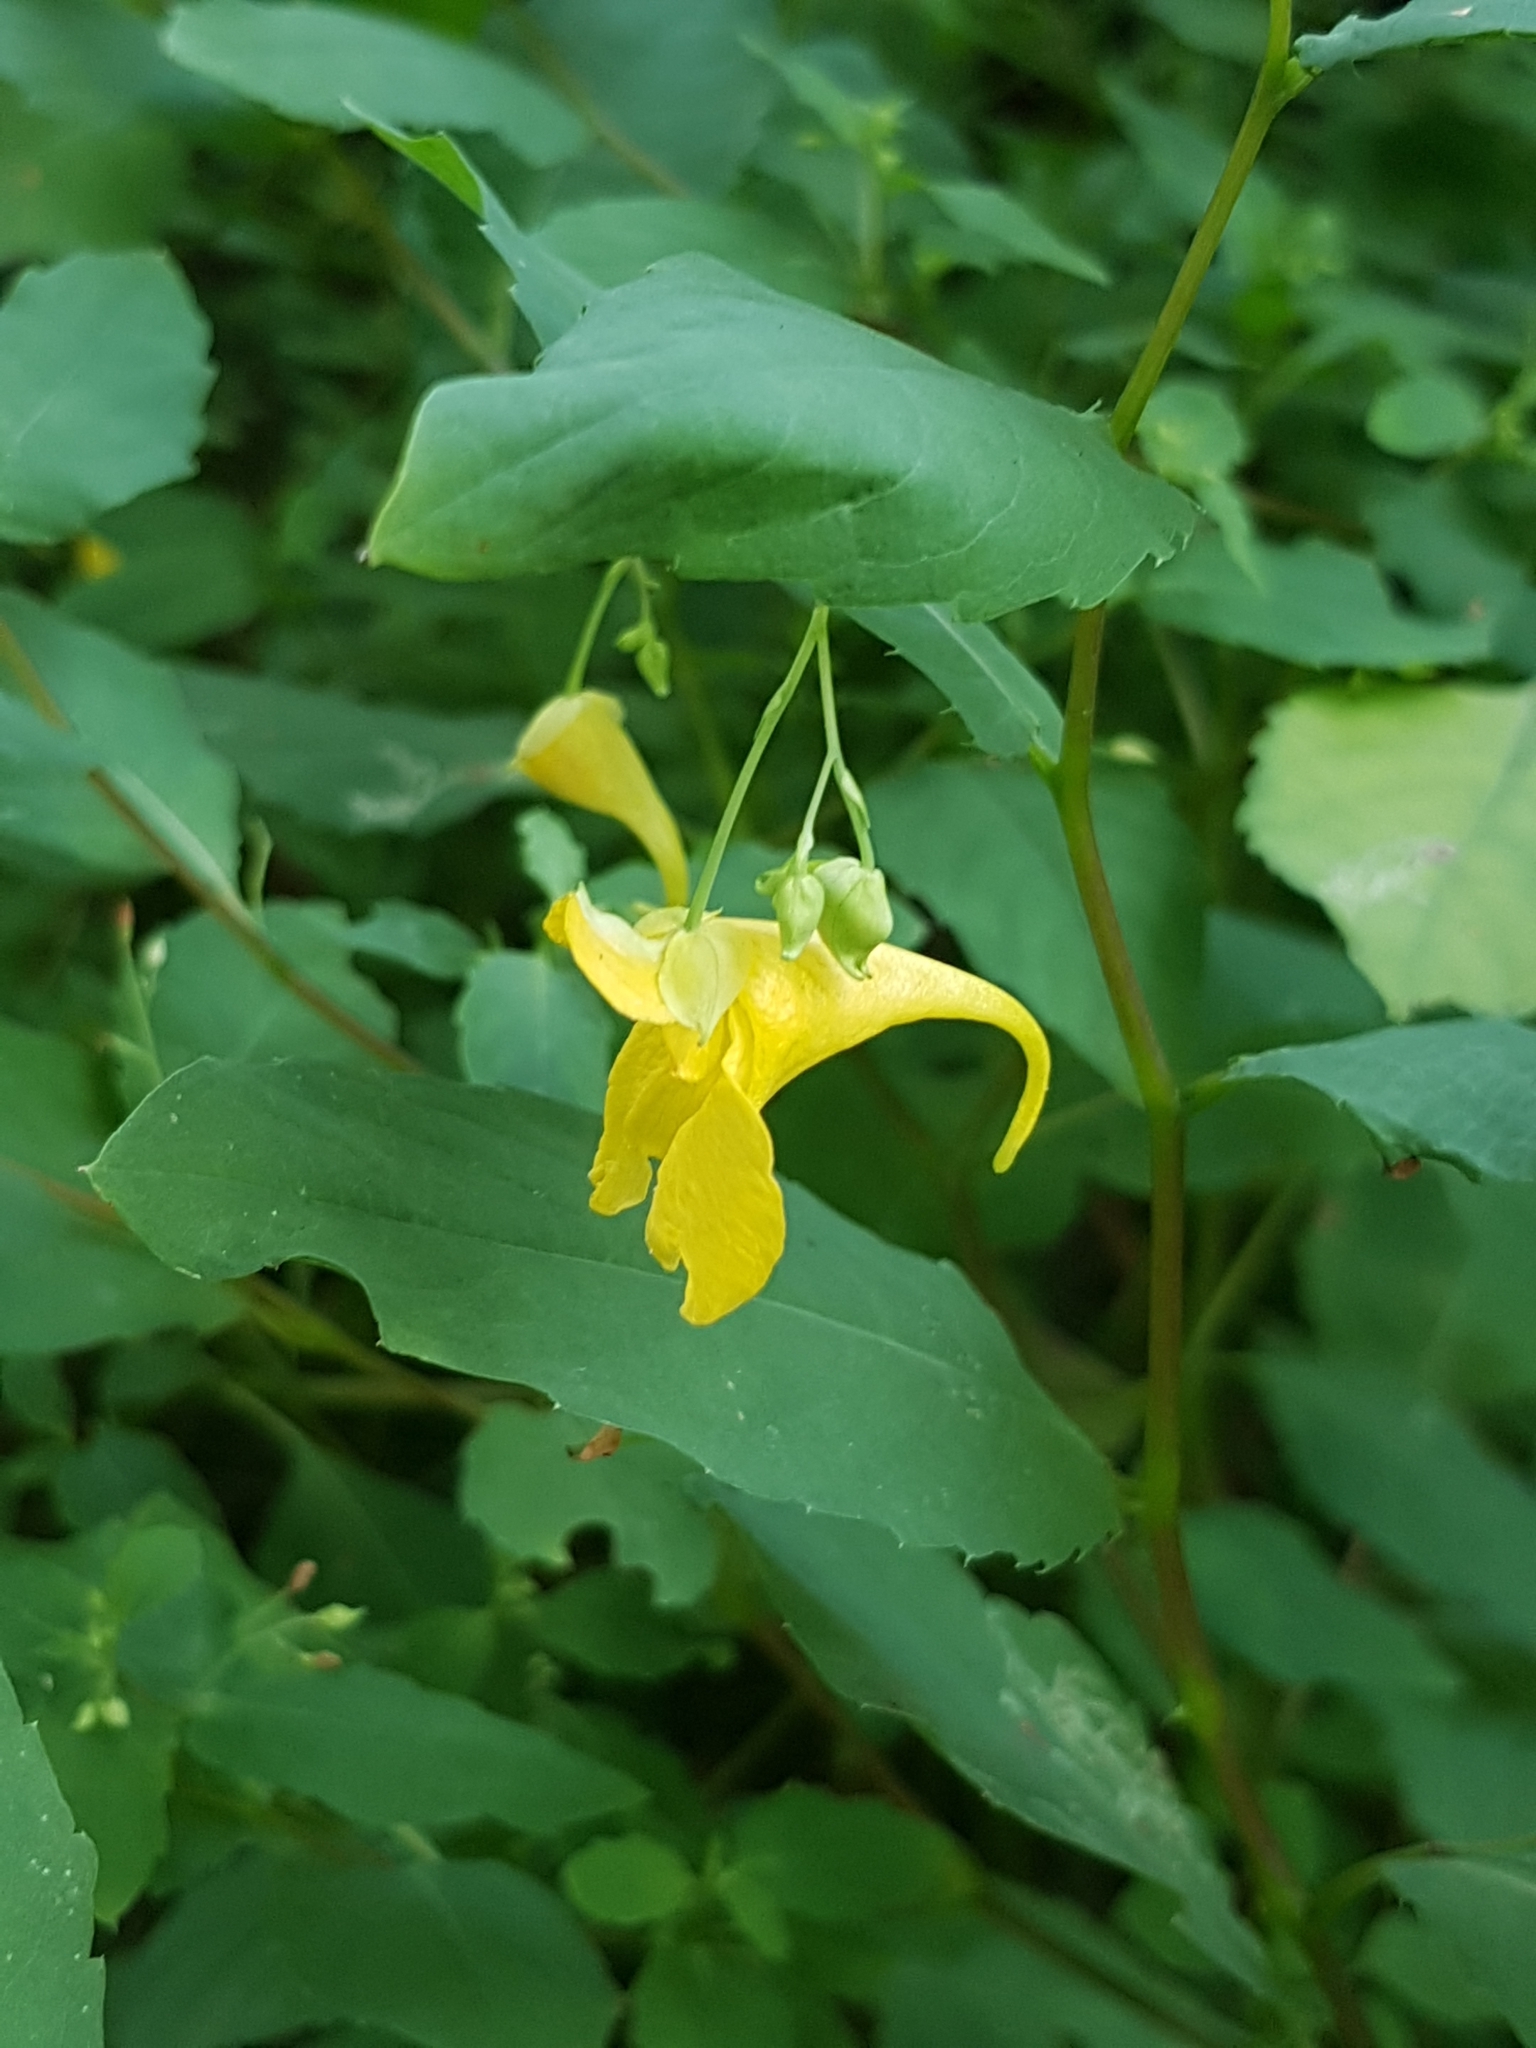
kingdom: Plantae
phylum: Tracheophyta
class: Magnoliopsida
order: Ericales
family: Balsaminaceae
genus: Impatiens
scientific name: Impatiens noli-tangere
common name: Touch-me-not balsam
